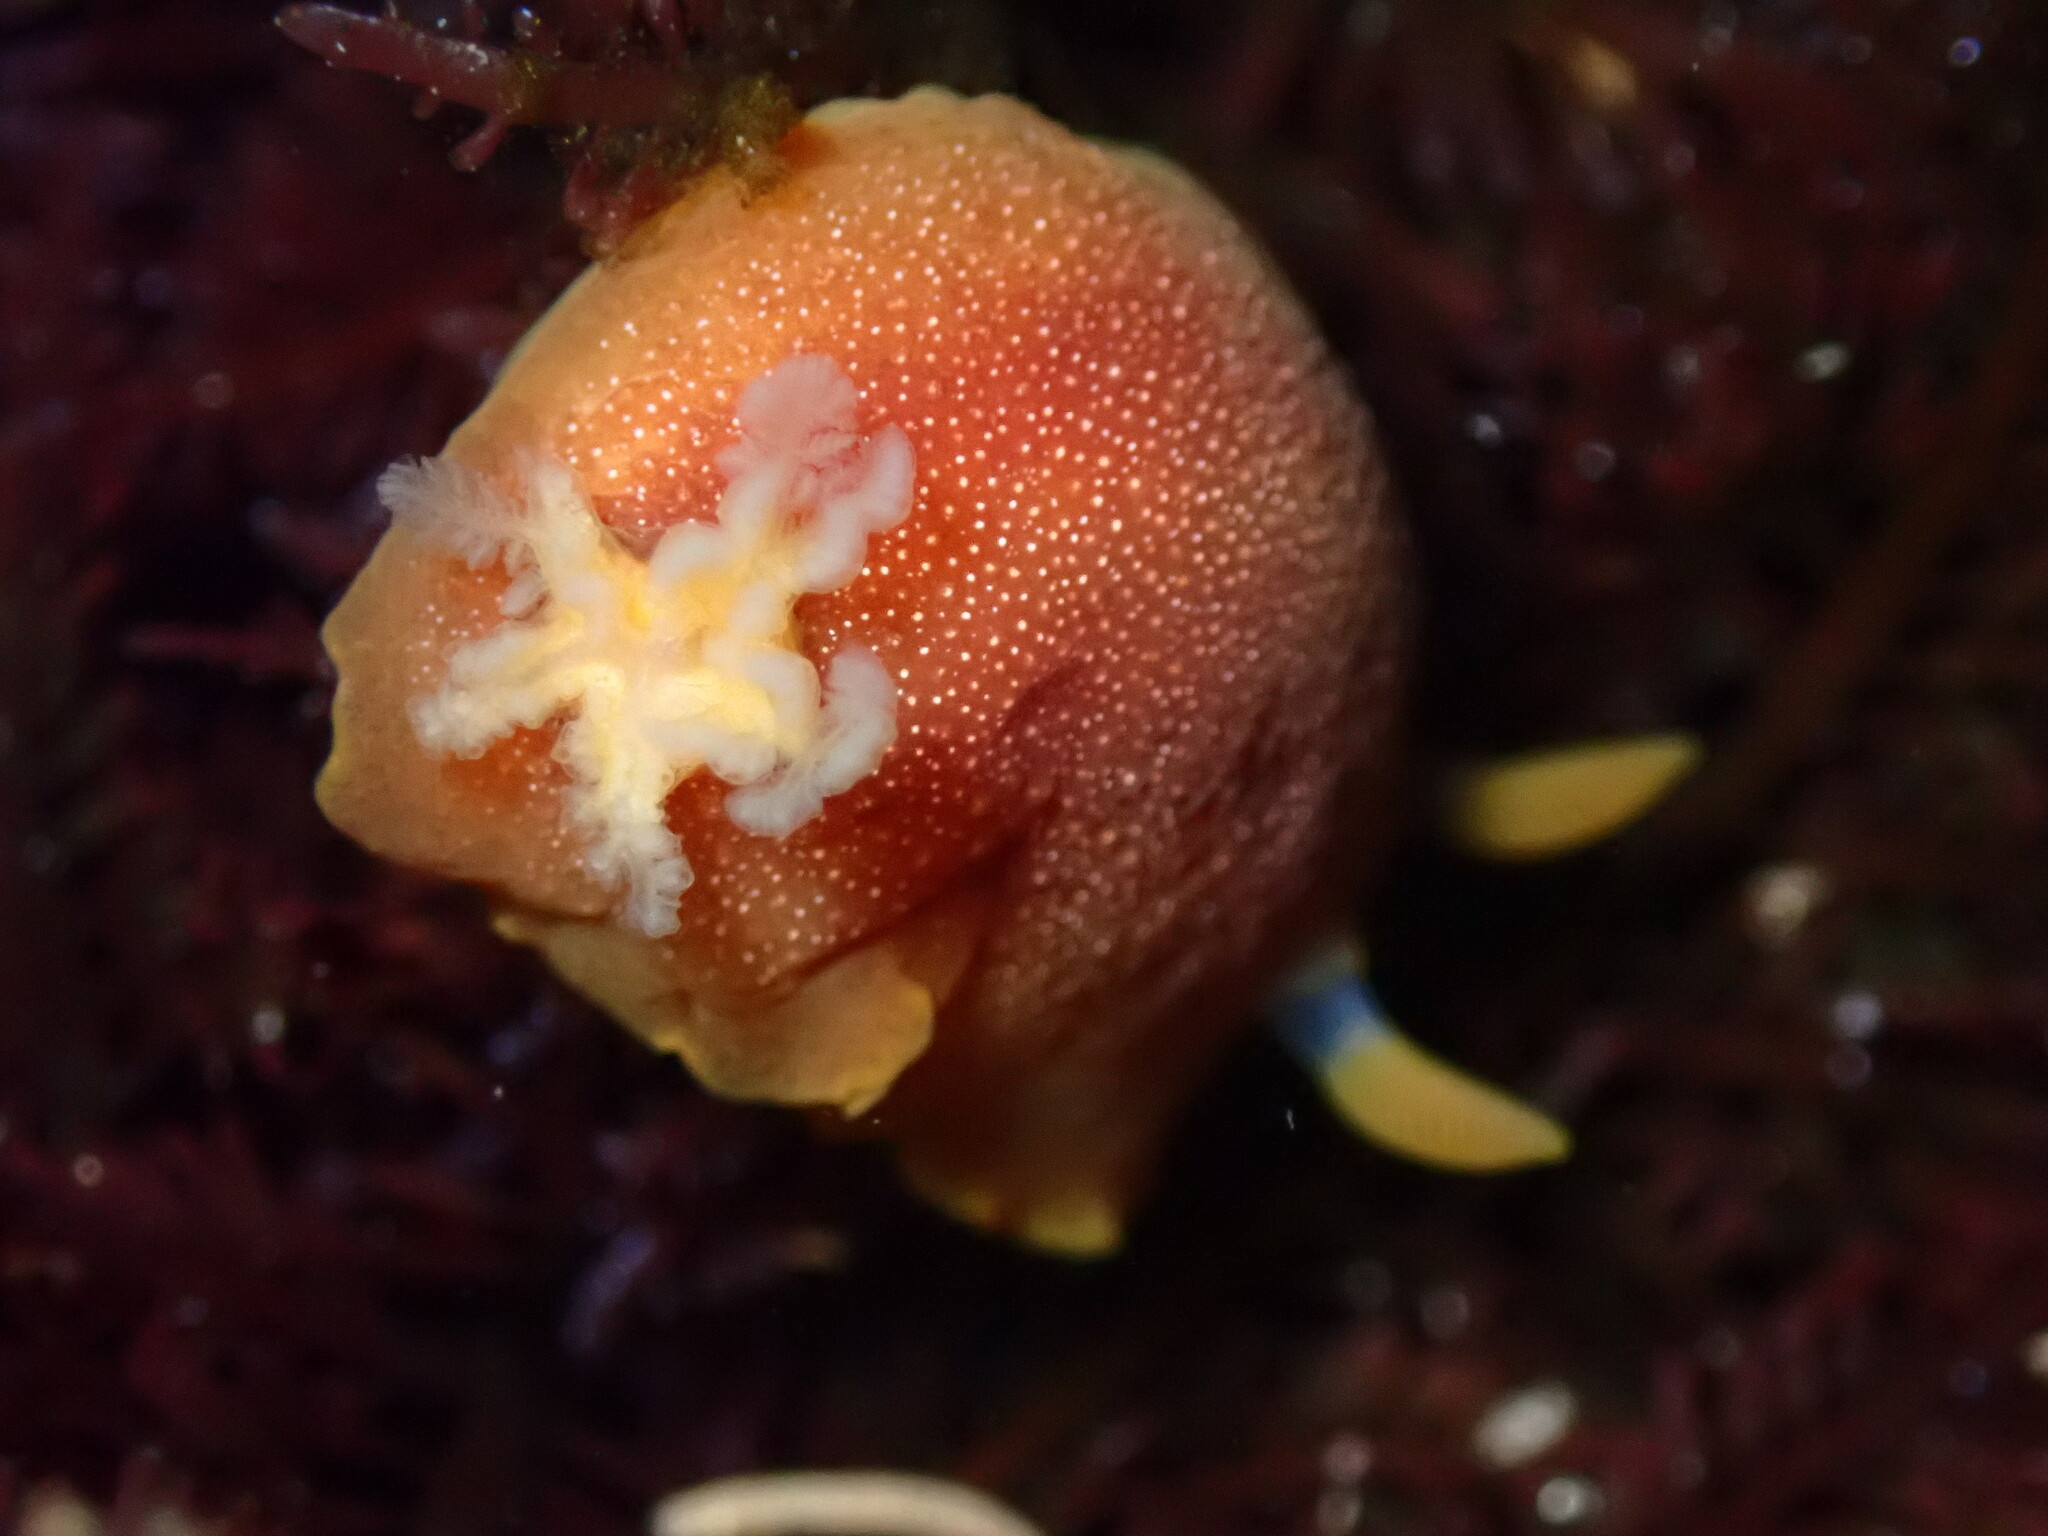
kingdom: Animalia
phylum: Mollusca
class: Gastropoda
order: Nudibranchia
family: Dendrodorididae
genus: Doriopsilla
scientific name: Doriopsilla albopunctata
